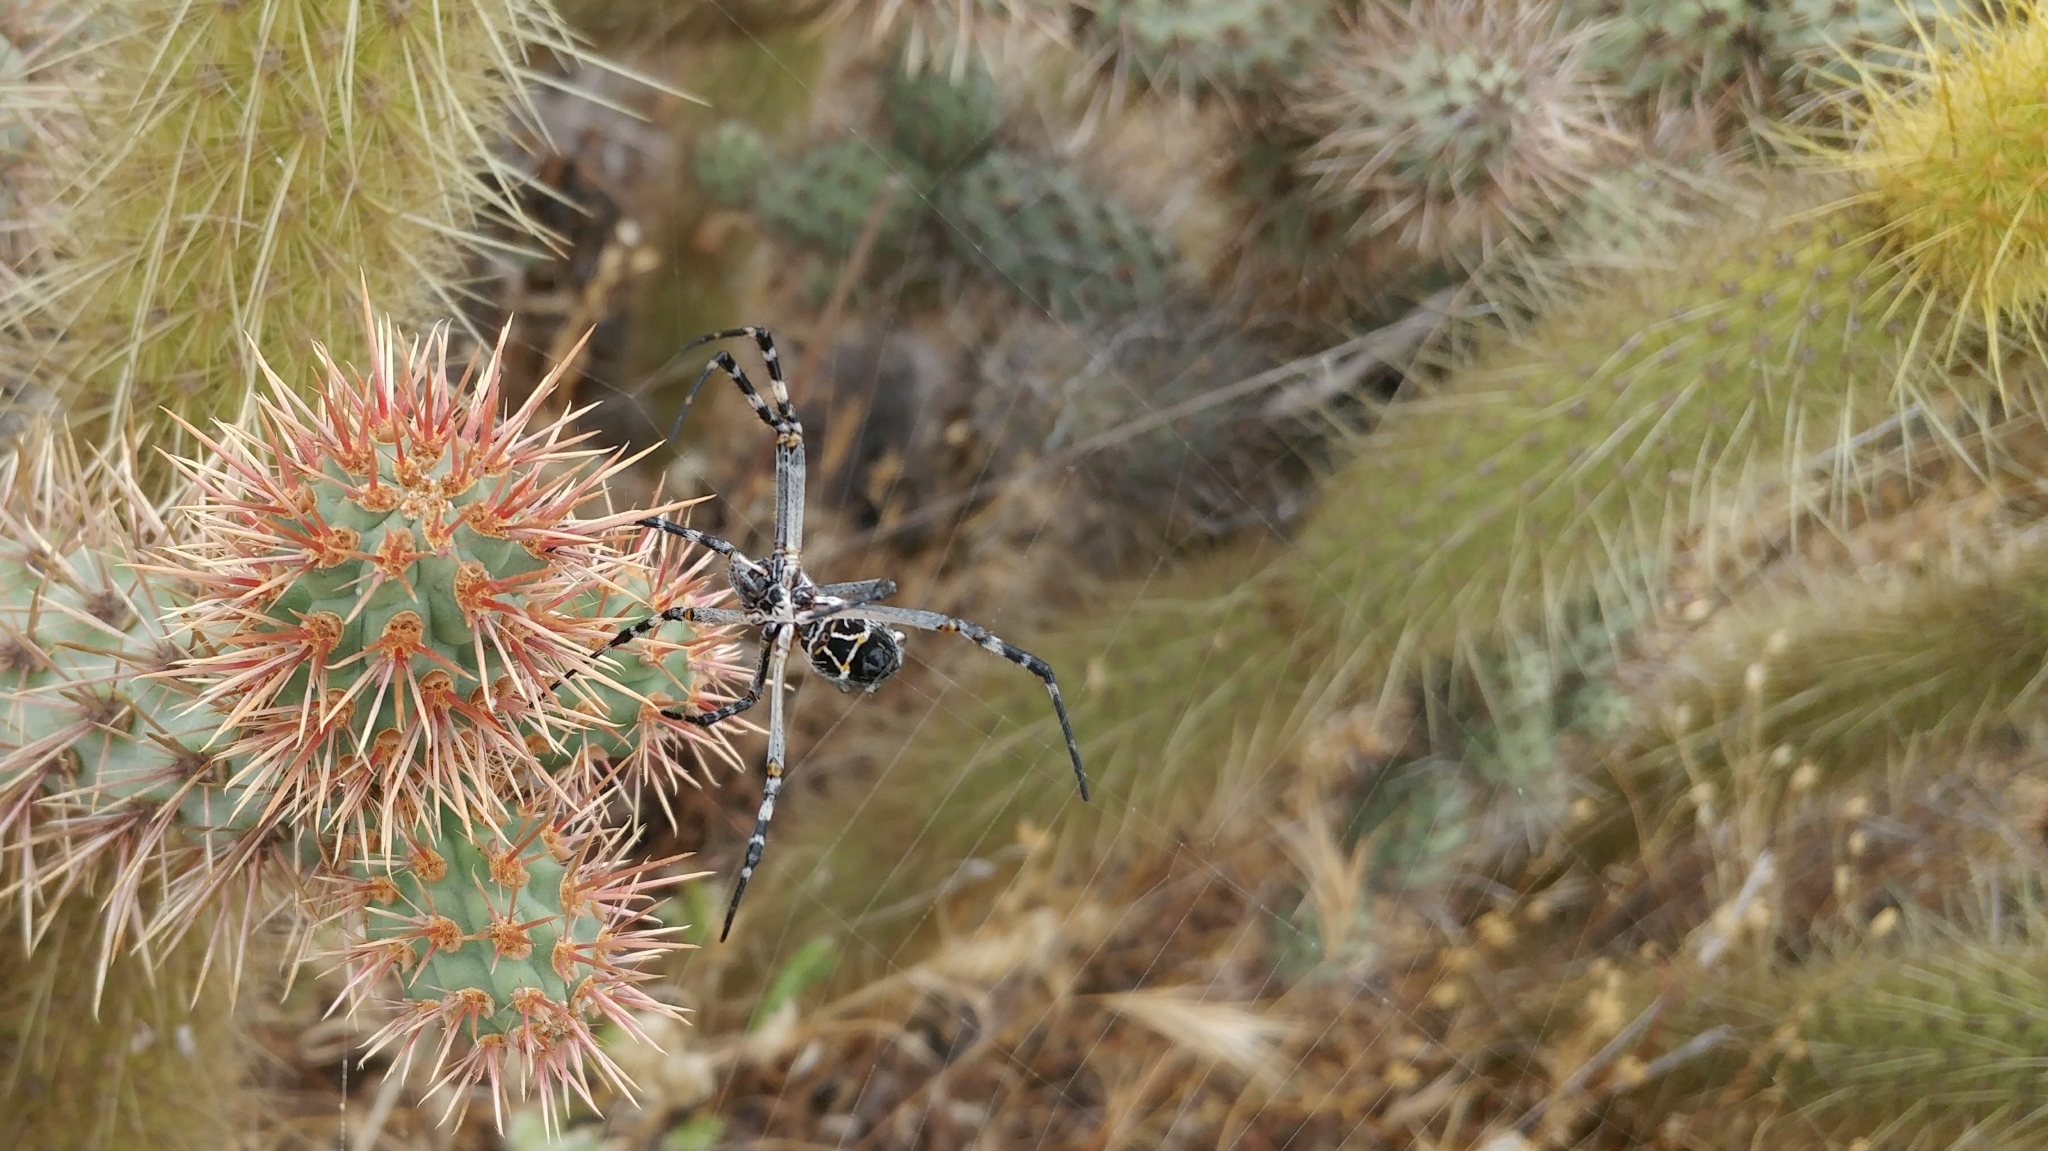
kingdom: Animalia
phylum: Arthropoda
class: Arachnida
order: Araneae
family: Araneidae
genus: Argiope
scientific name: Argiope argentata
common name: Orb weavers
